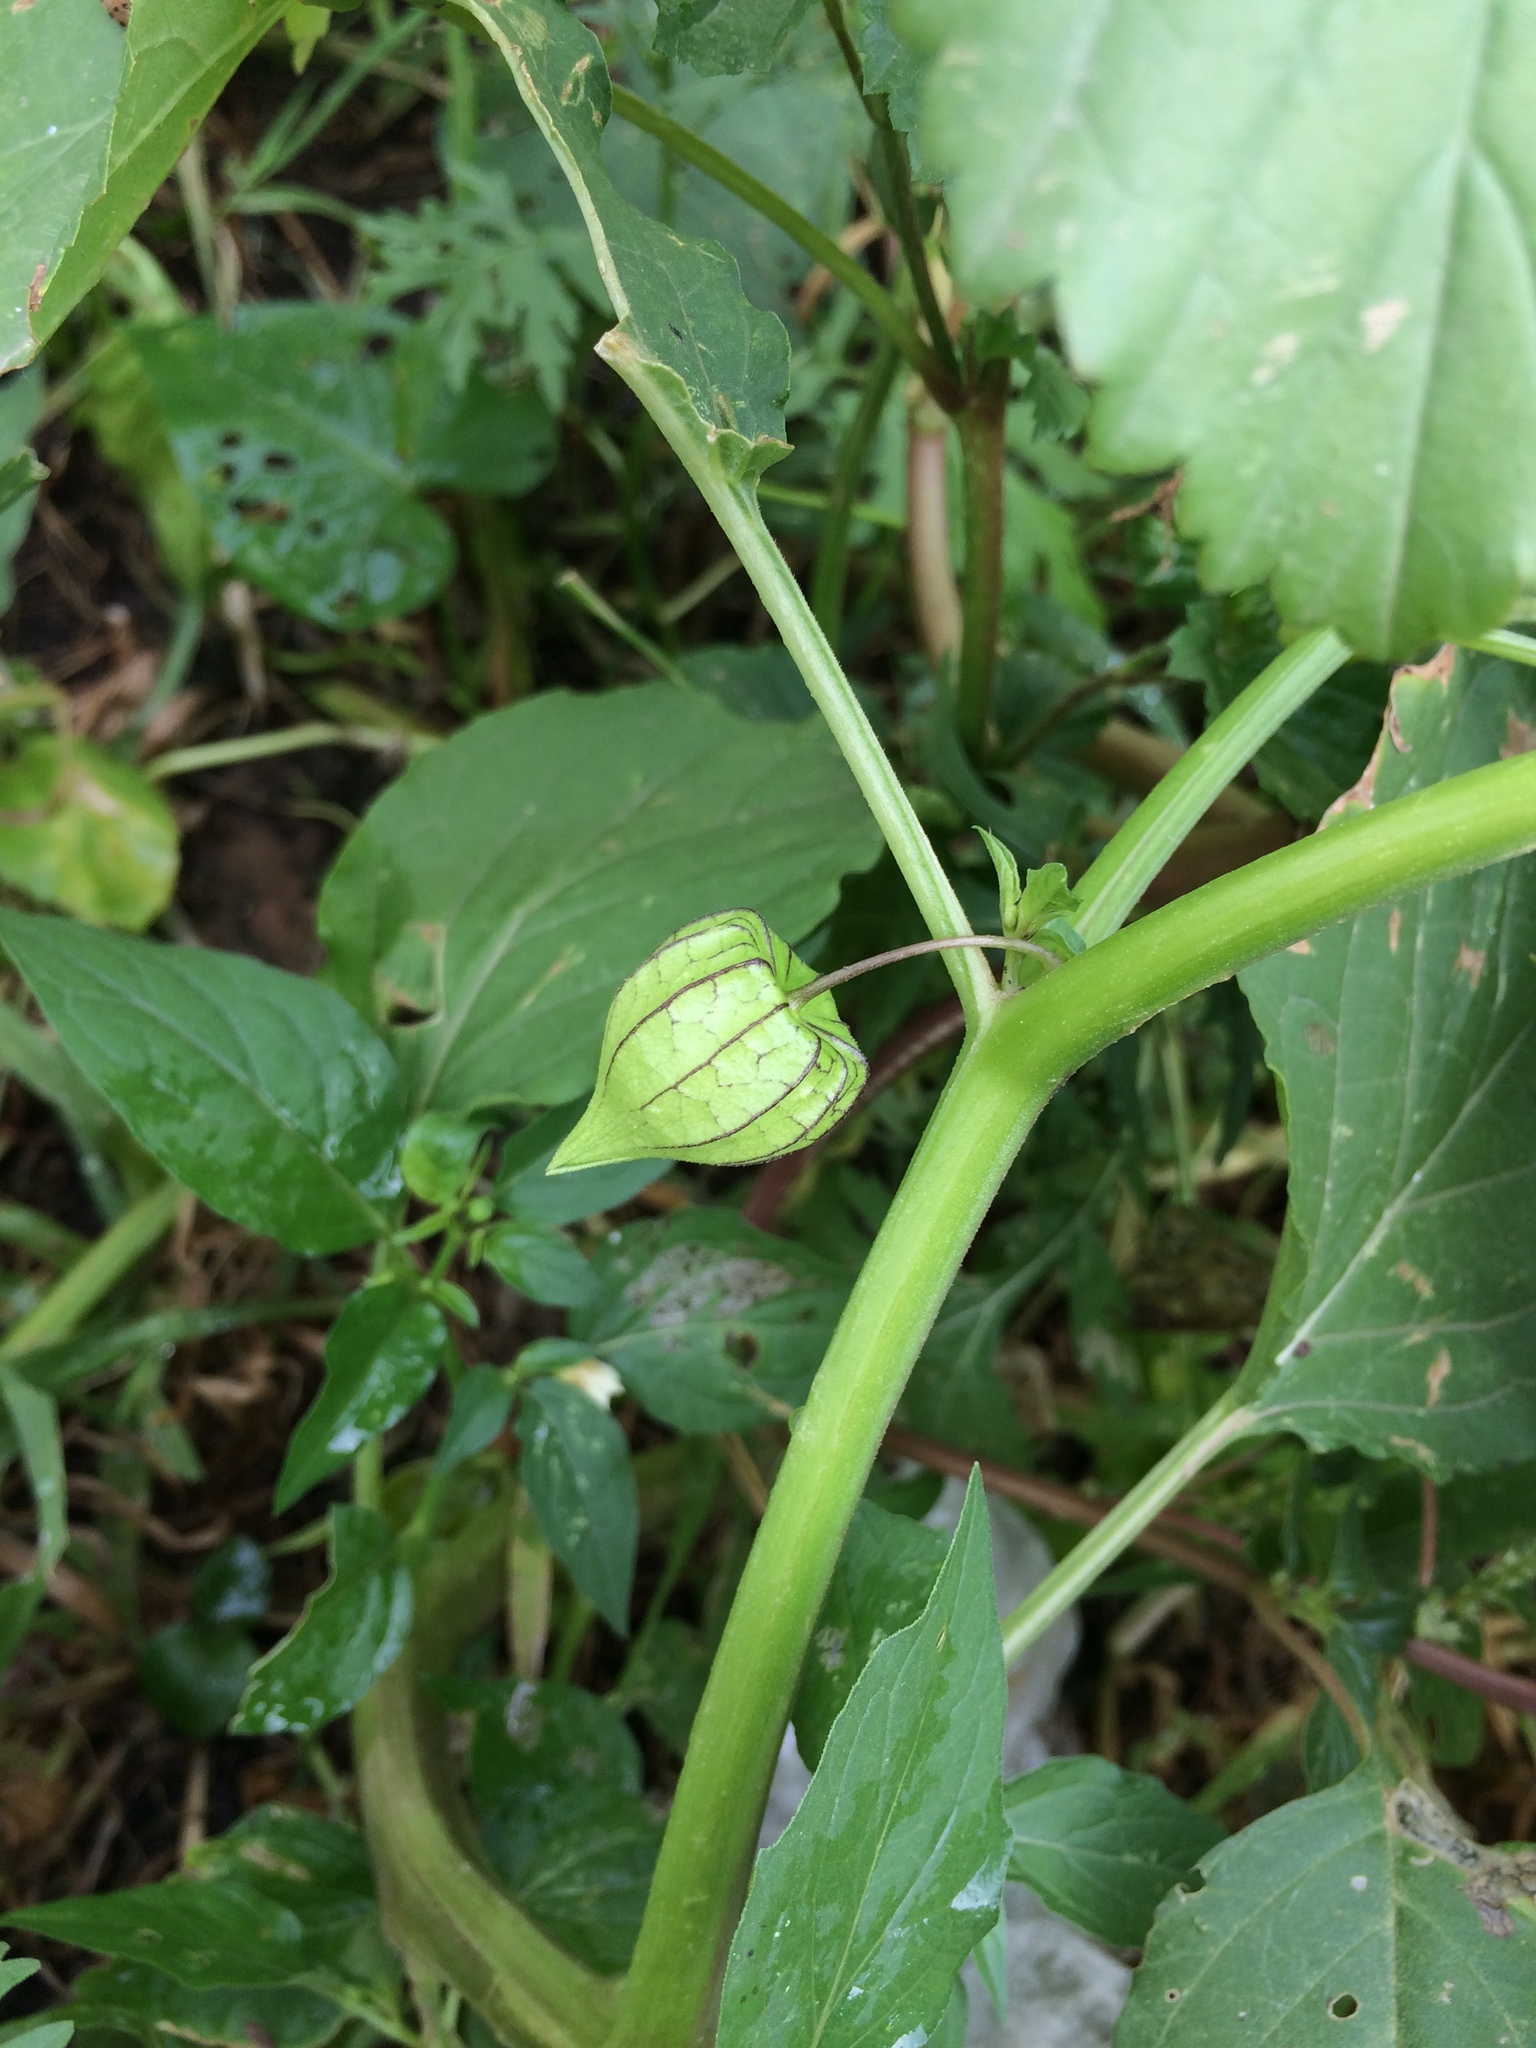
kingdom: Plantae
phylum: Tracheophyta
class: Magnoliopsida
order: Solanales
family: Solanaceae
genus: Physalis
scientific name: Physalis angulata
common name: Angular winter-cherry
